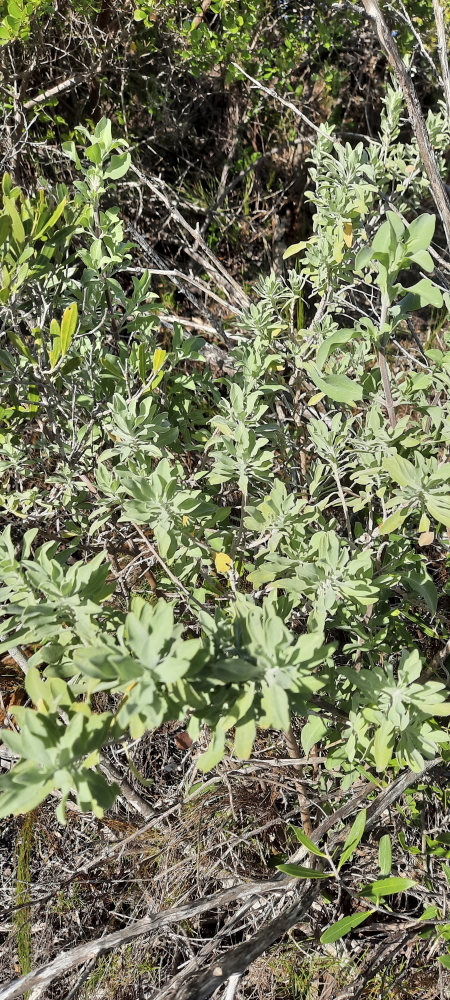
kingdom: Plantae
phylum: Tracheophyta
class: Magnoliopsida
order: Lamiales
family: Lamiaceae
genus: Salvia
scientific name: Salvia aurea
